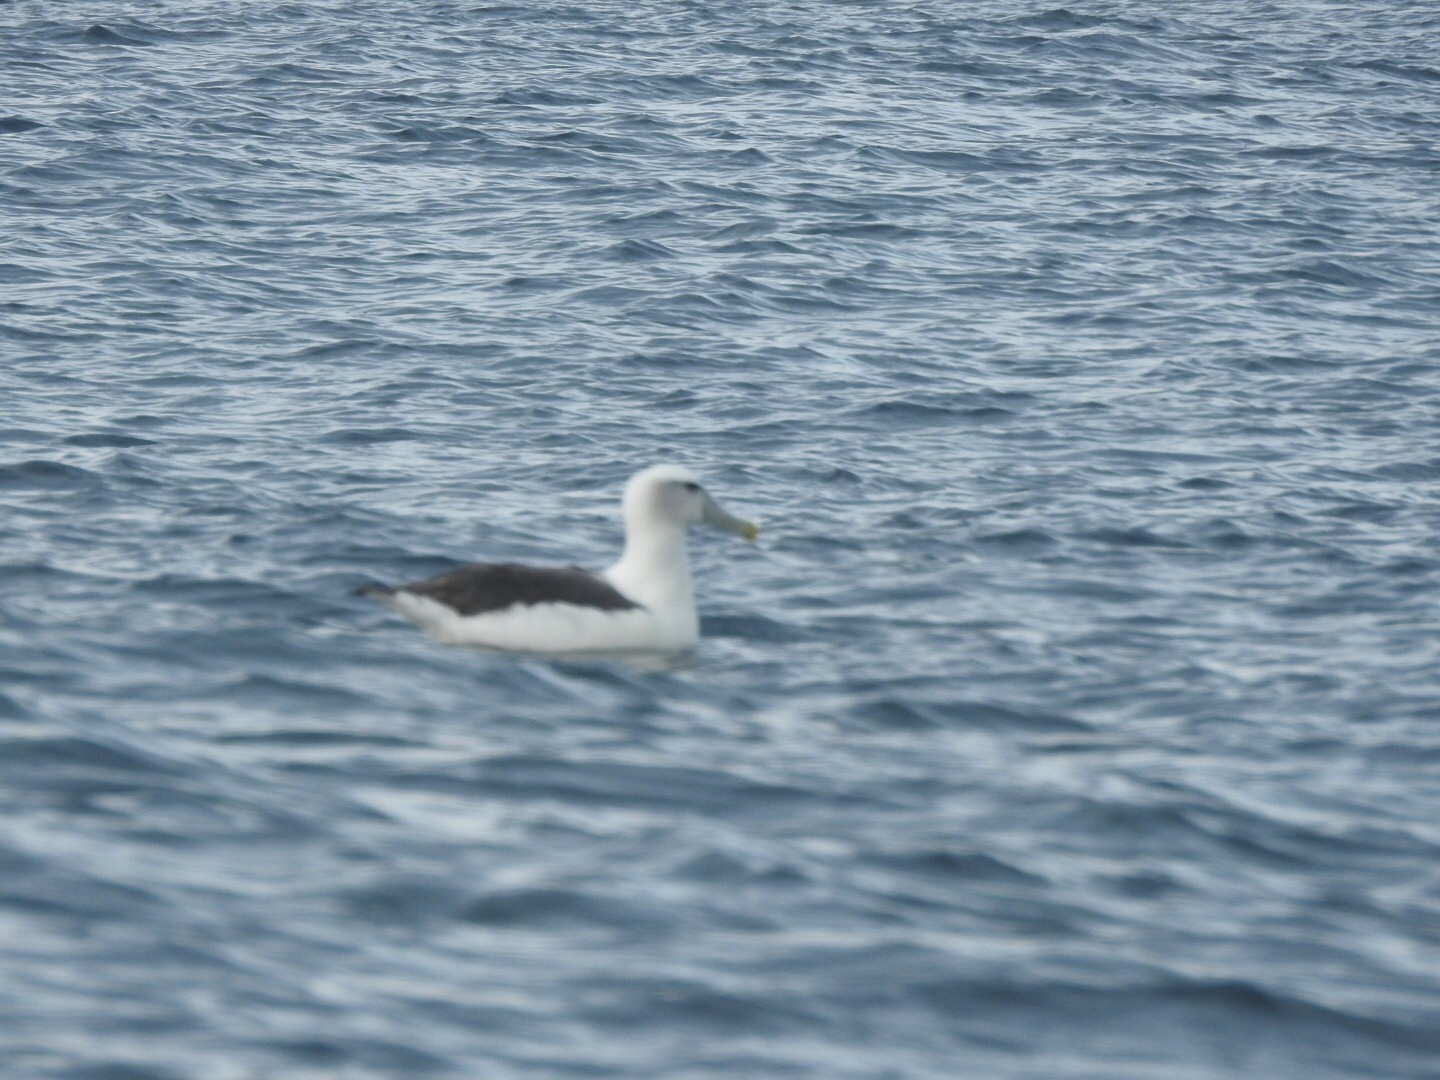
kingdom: Animalia
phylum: Chordata
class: Aves
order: Procellariiformes
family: Diomedeidae
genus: Thalassarche
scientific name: Thalassarche cauta
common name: Shy albatross
